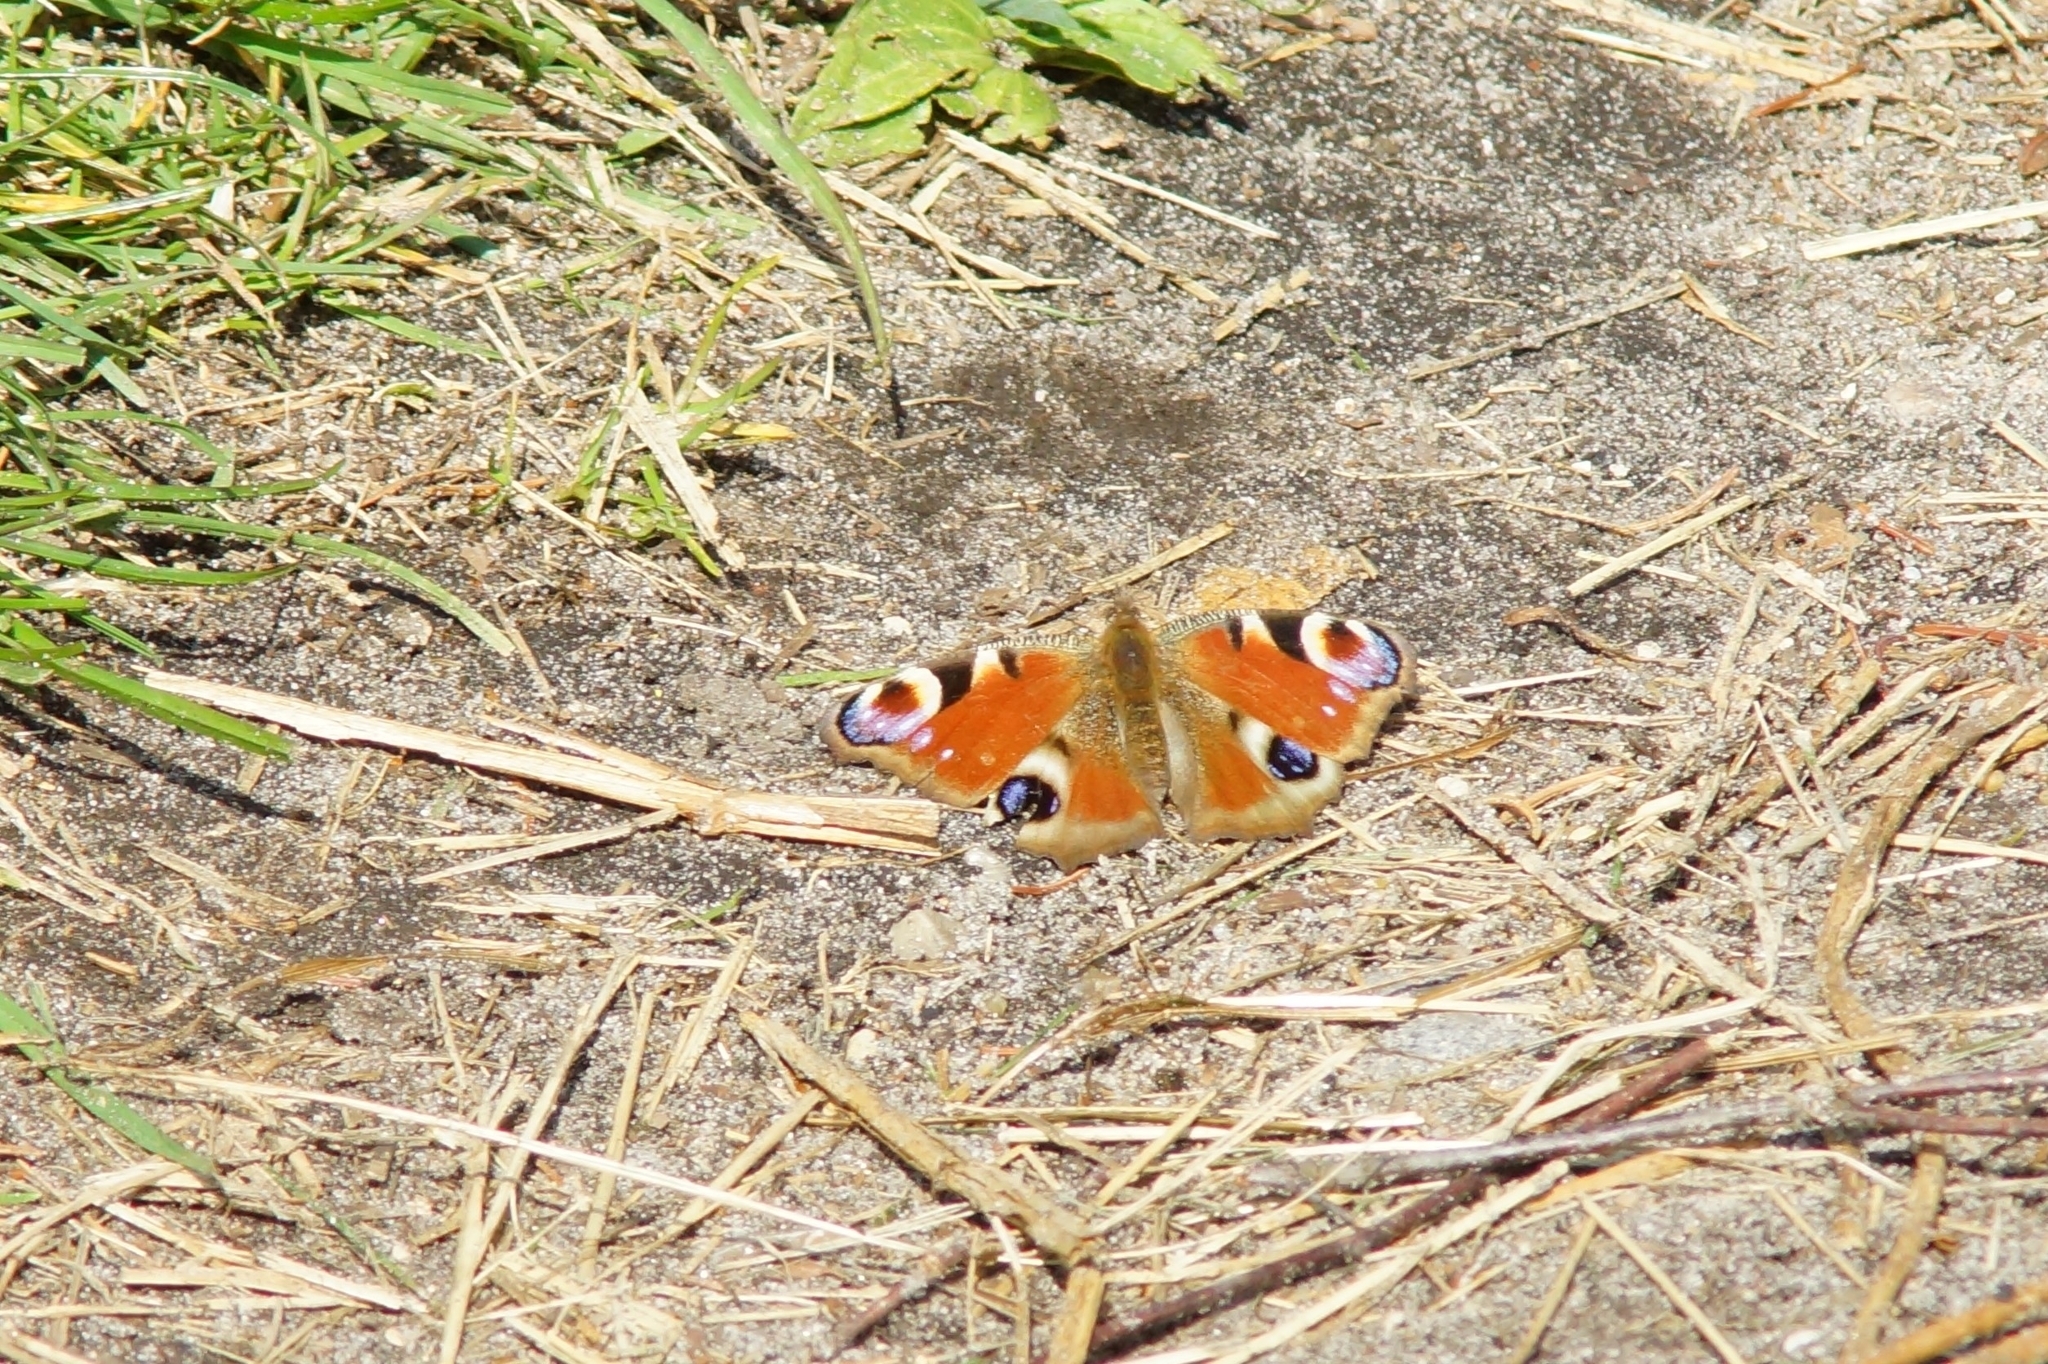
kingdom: Animalia
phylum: Arthropoda
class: Insecta
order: Lepidoptera
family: Nymphalidae
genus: Aglais
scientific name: Aglais io
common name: Peacock
